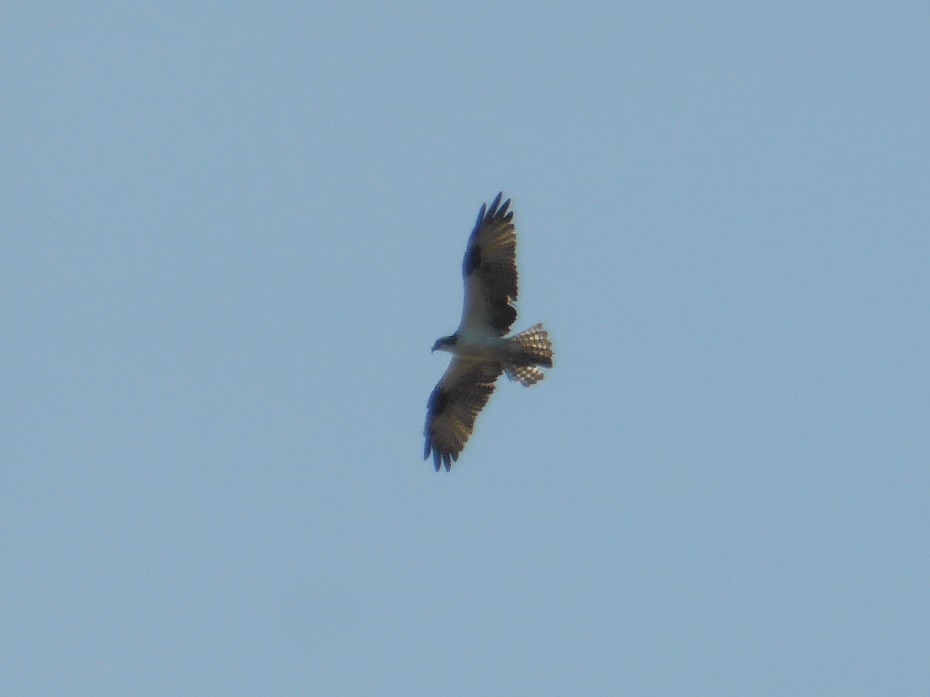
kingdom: Animalia
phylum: Chordata
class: Aves
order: Accipitriformes
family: Pandionidae
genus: Pandion
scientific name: Pandion haliaetus
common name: Osprey
